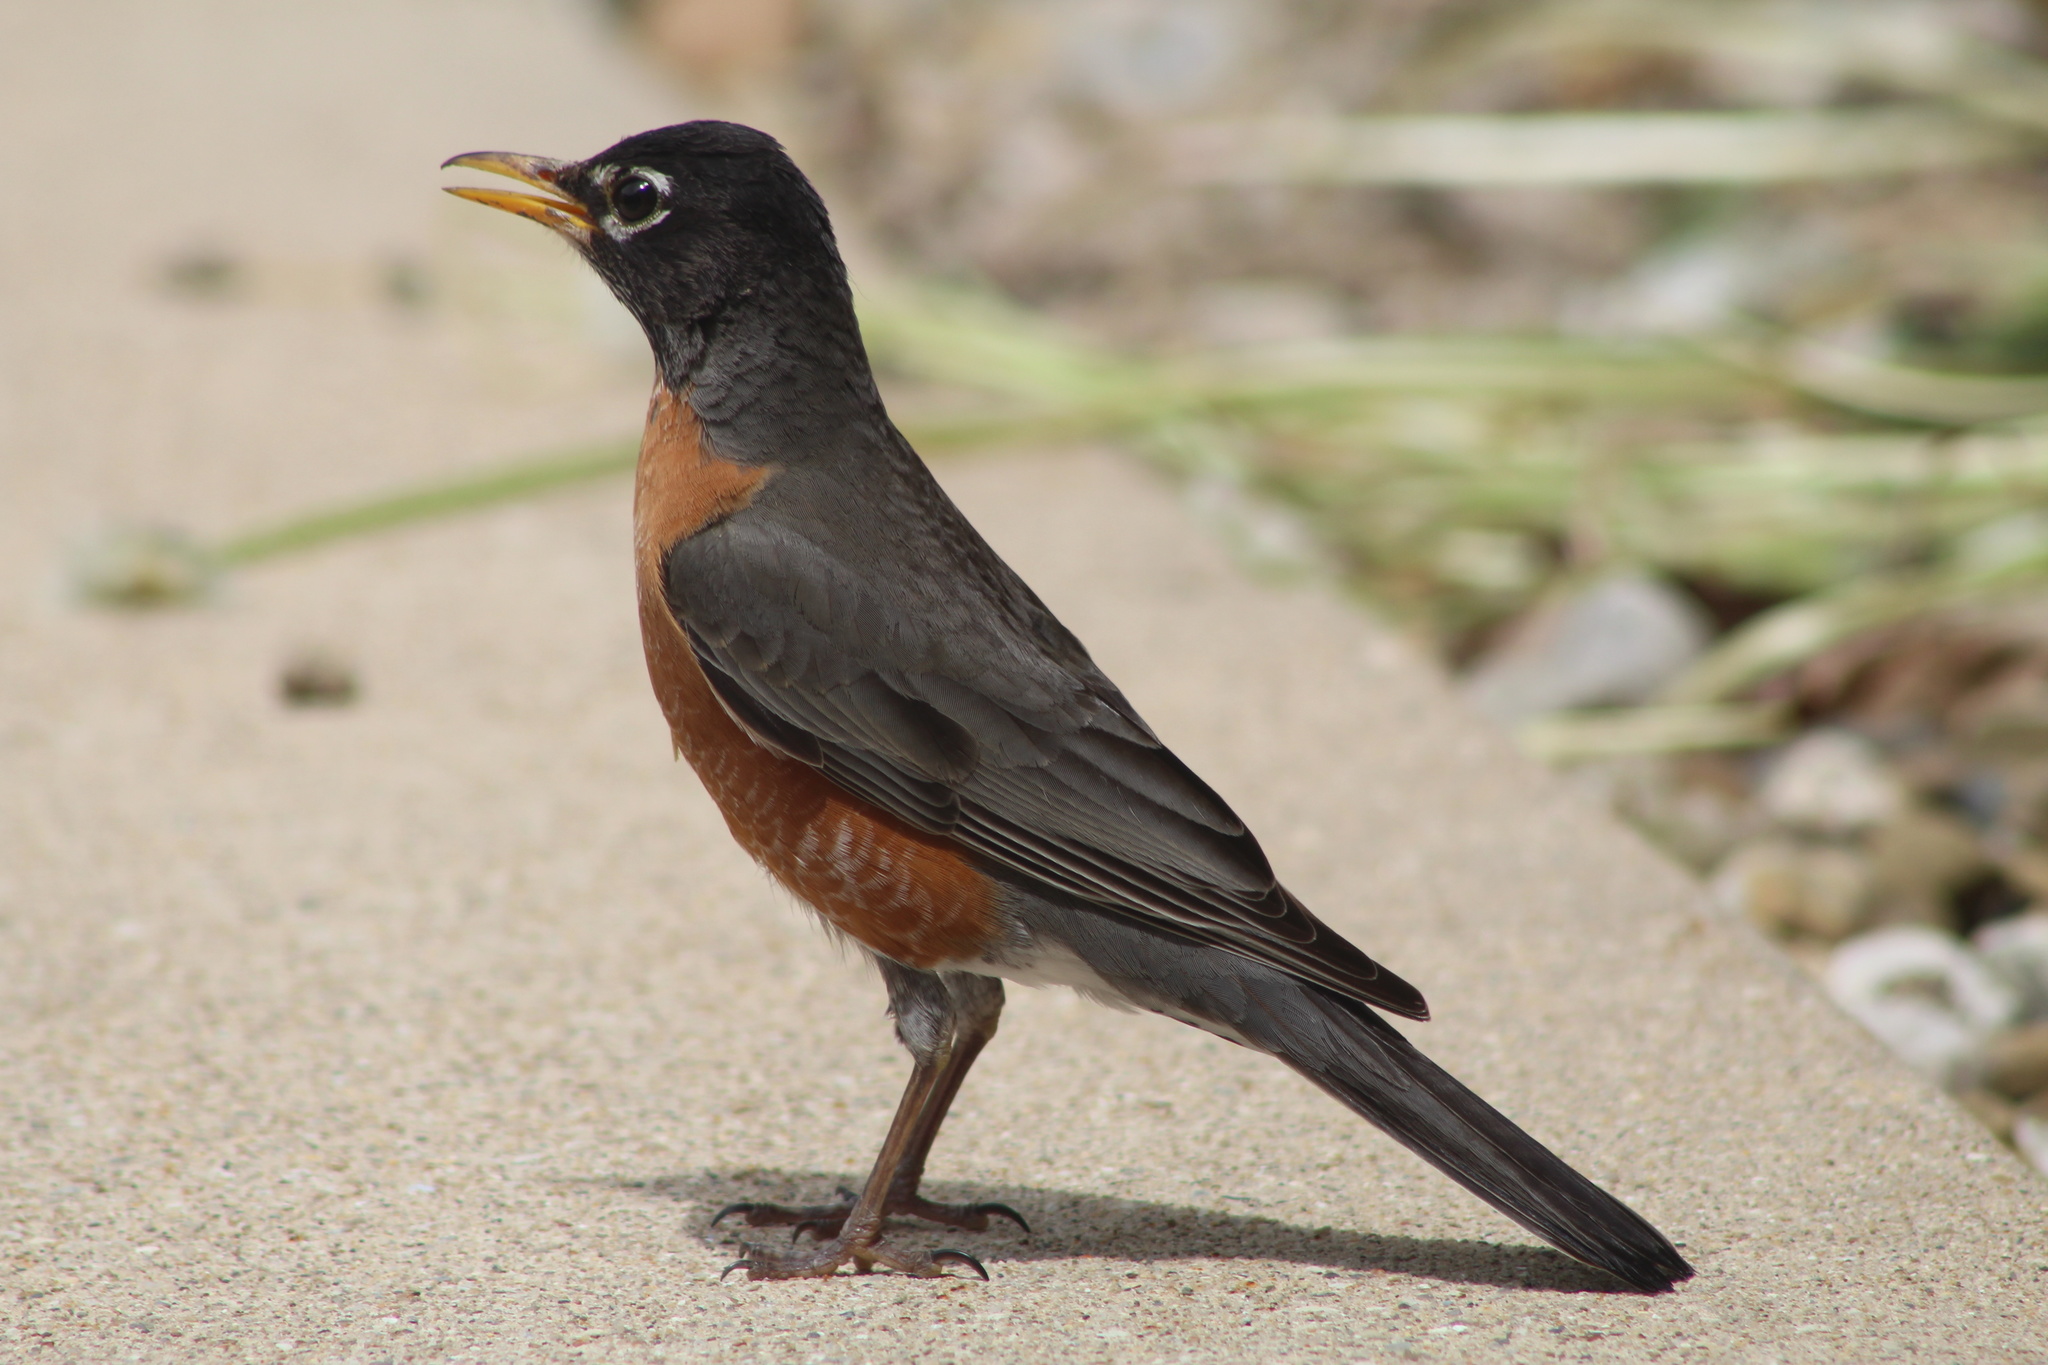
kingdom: Animalia
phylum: Chordata
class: Aves
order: Passeriformes
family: Turdidae
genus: Turdus
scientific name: Turdus migratorius
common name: American robin
